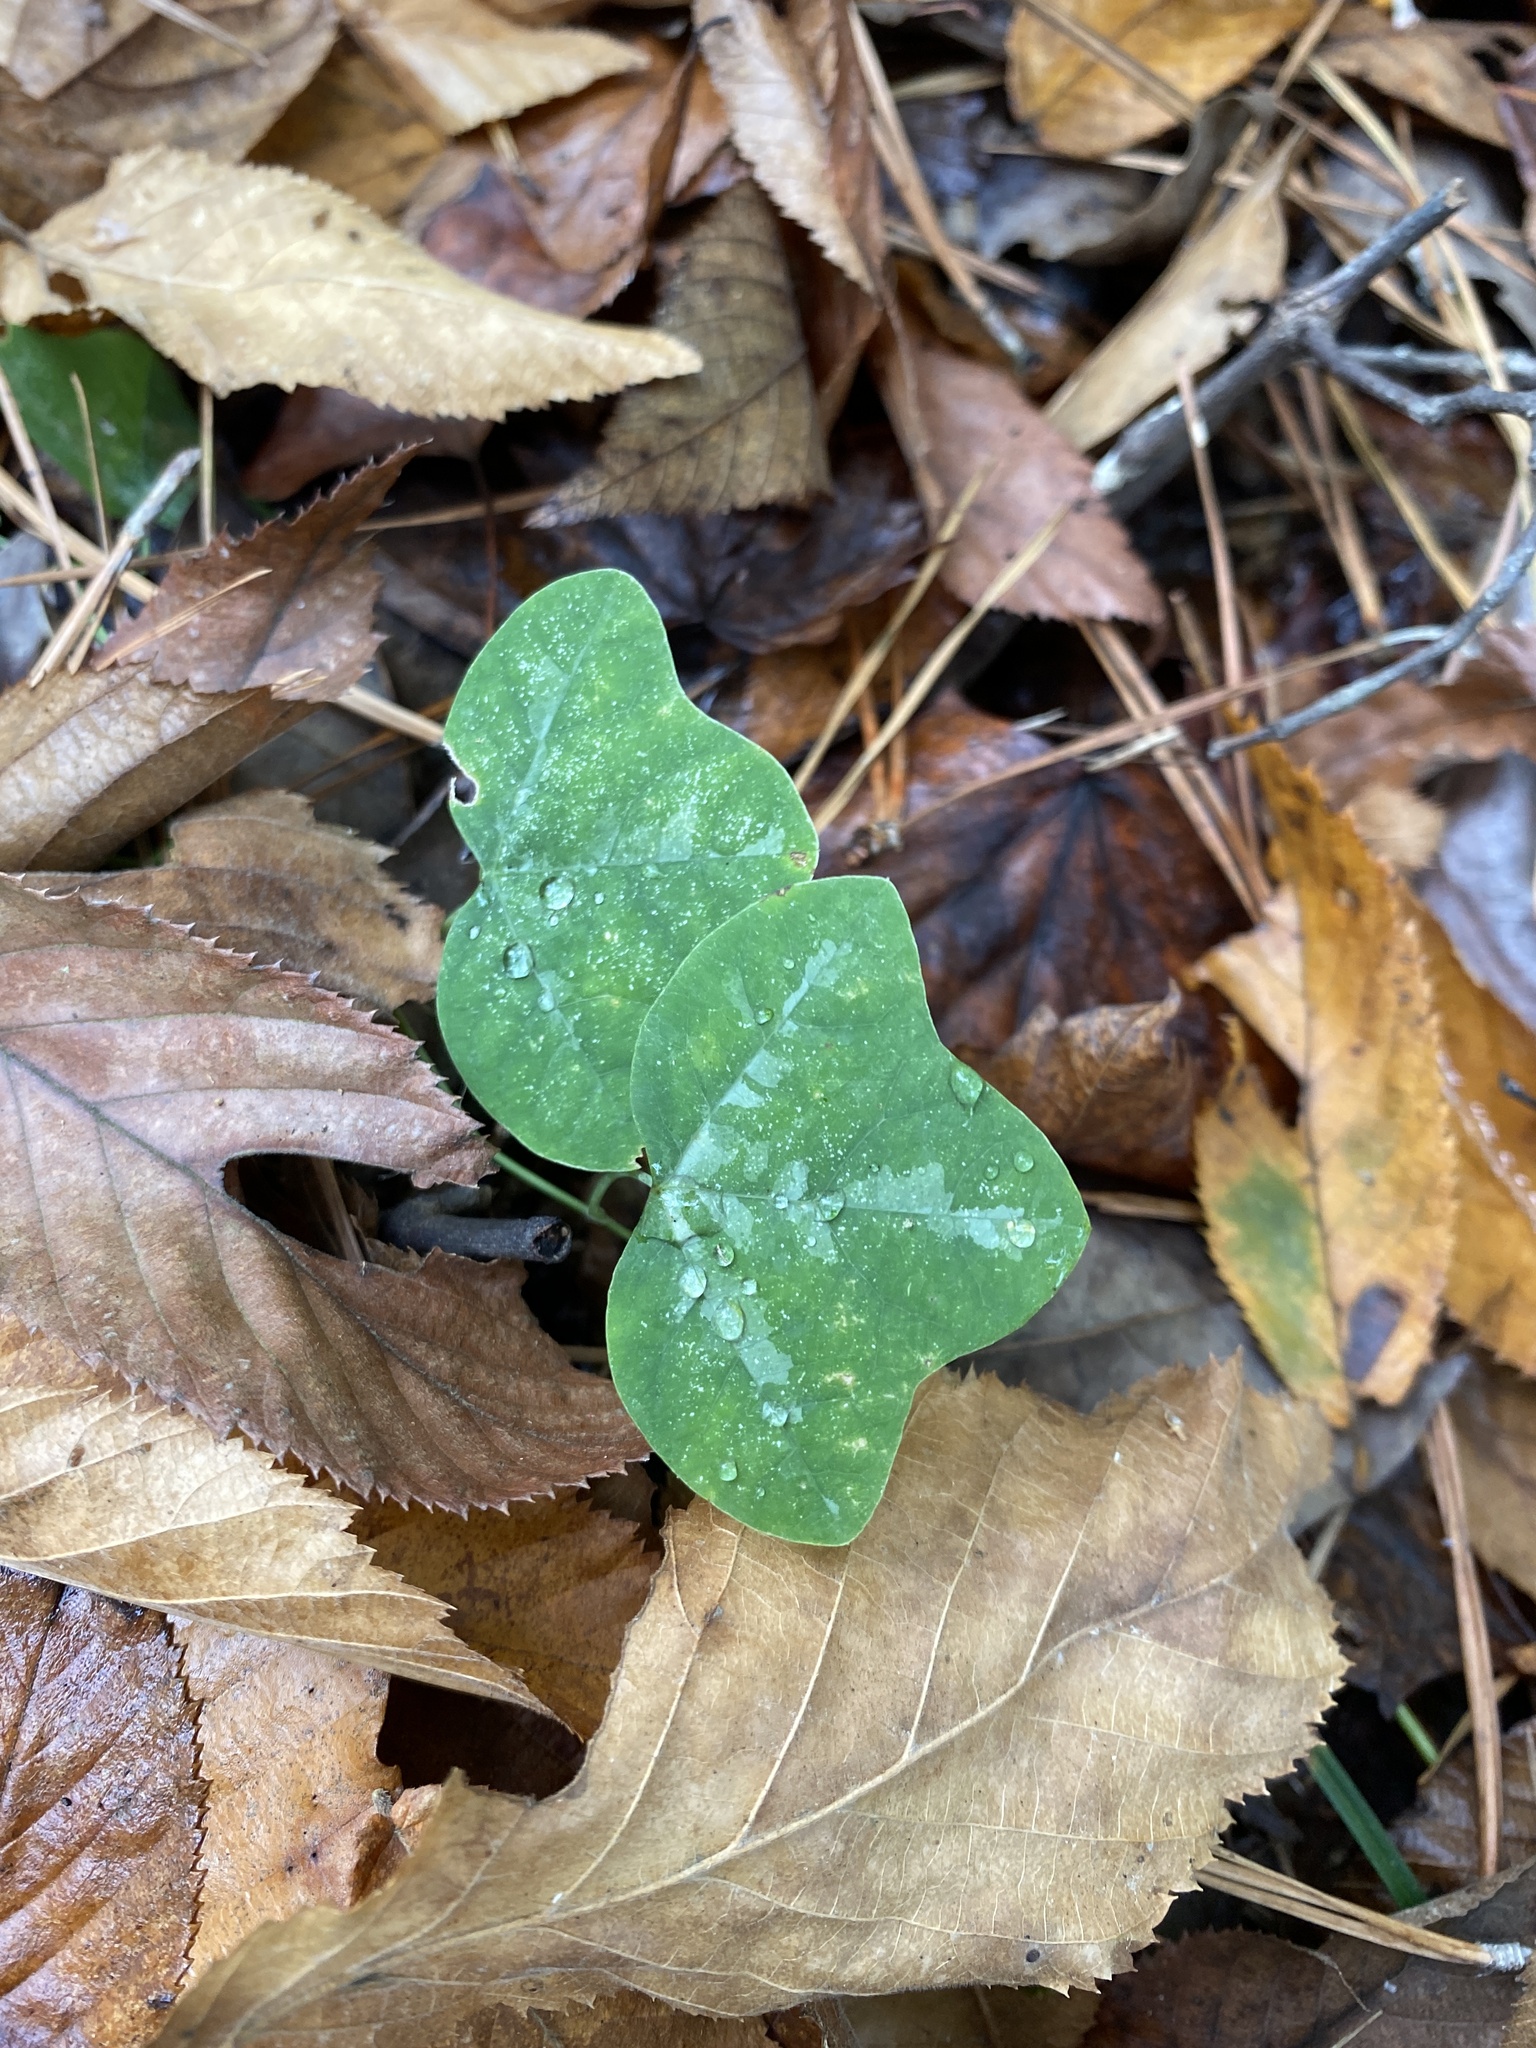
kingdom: Plantae
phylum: Tracheophyta
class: Magnoliopsida
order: Malpighiales
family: Passifloraceae
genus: Passiflora
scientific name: Passiflora lutea
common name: Yellow passionflower
